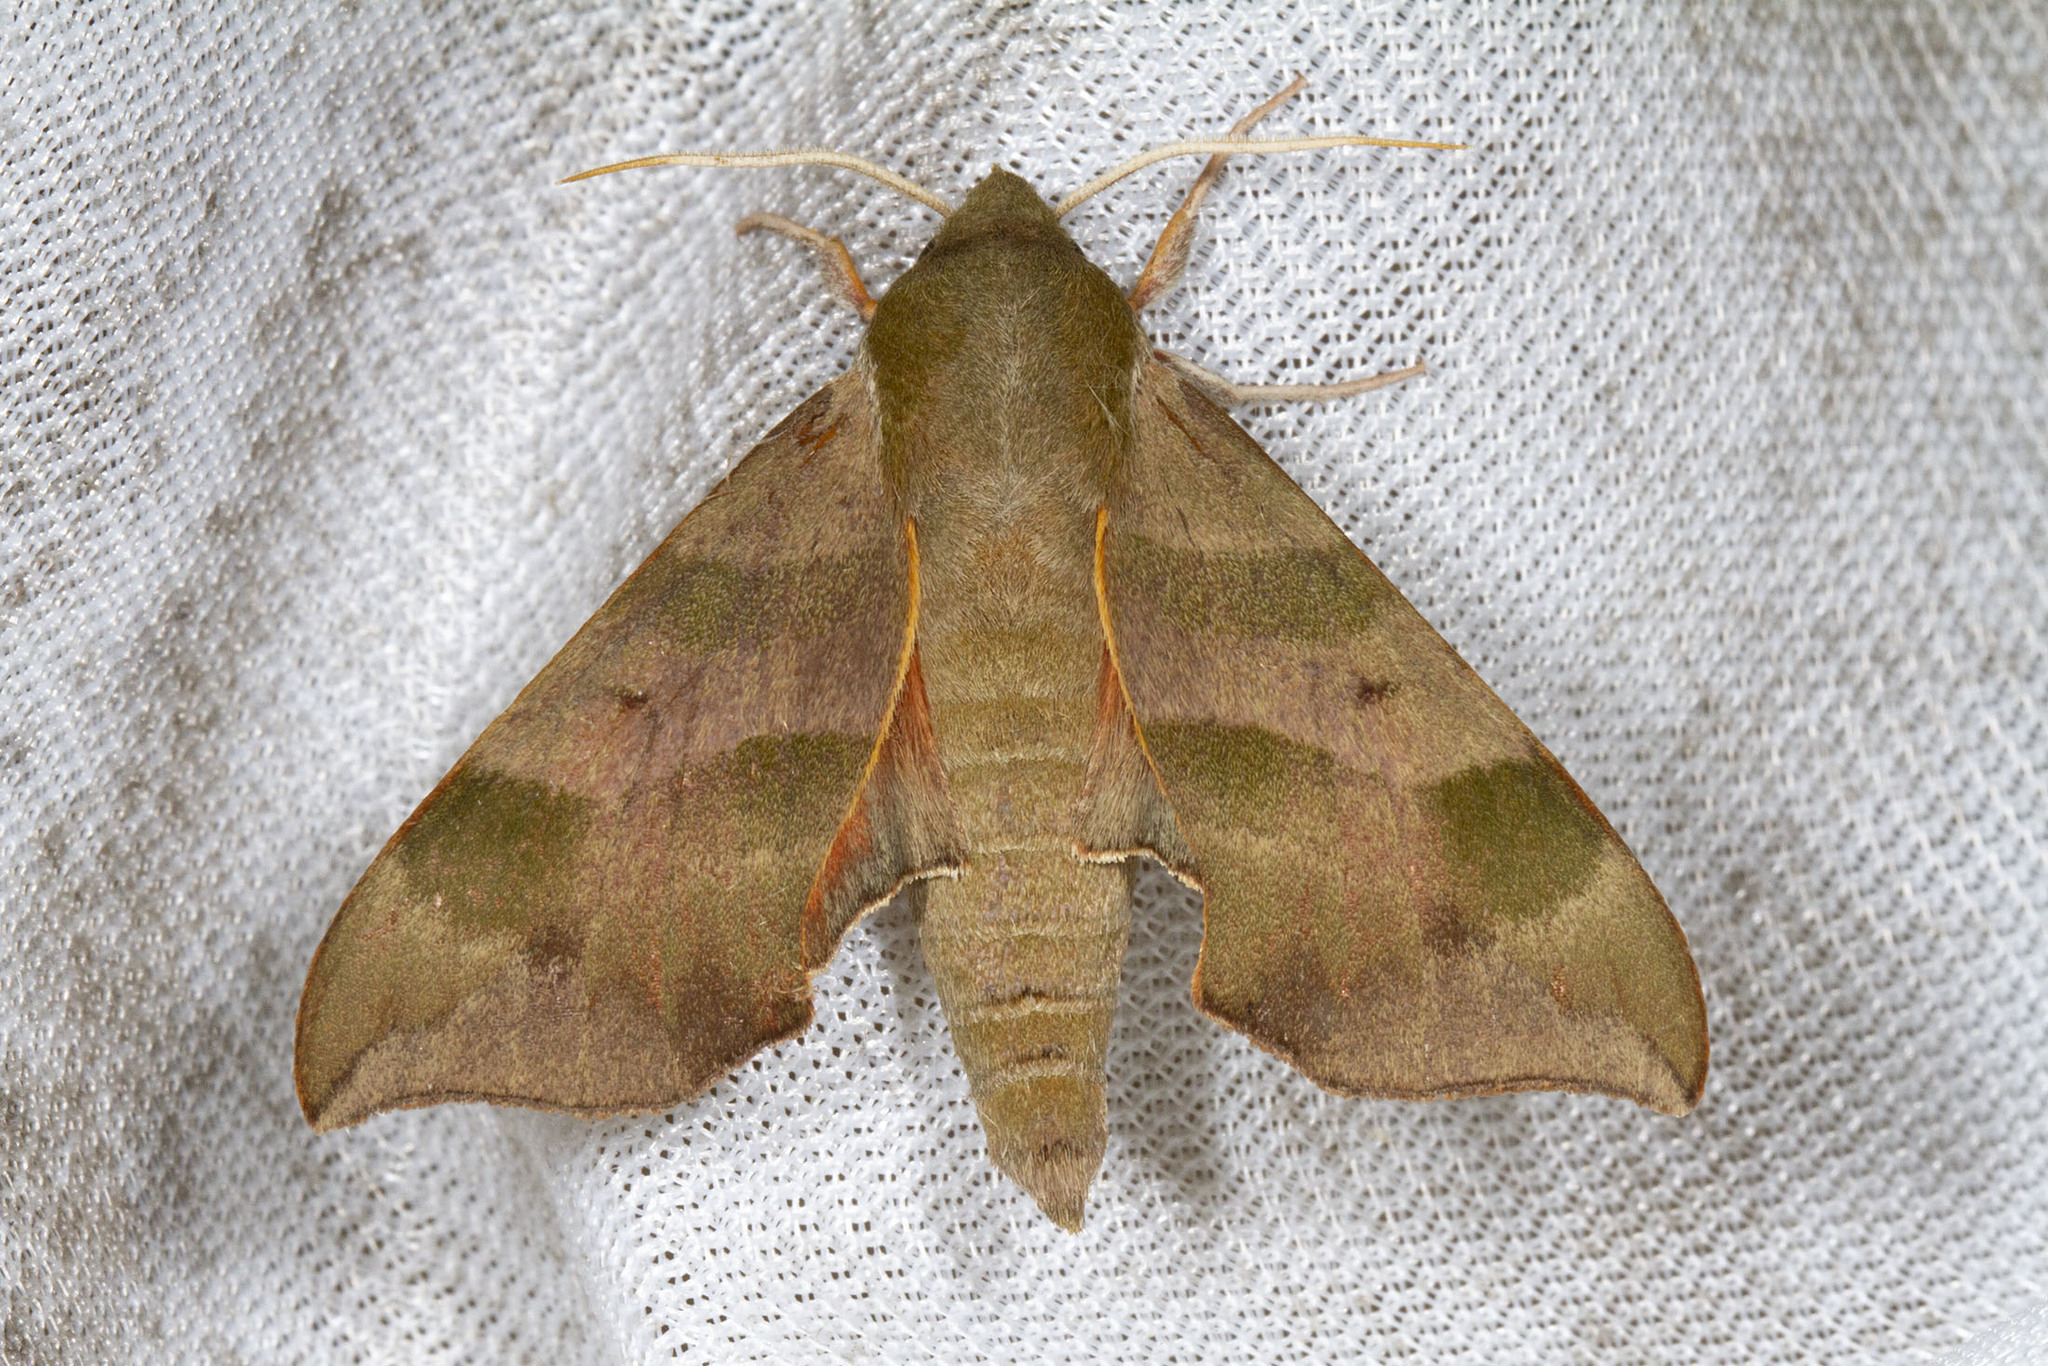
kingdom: Animalia
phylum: Arthropoda
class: Insecta
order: Lepidoptera
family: Sphingidae
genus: Darapsa
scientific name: Darapsa myron
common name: Hog sphinx
